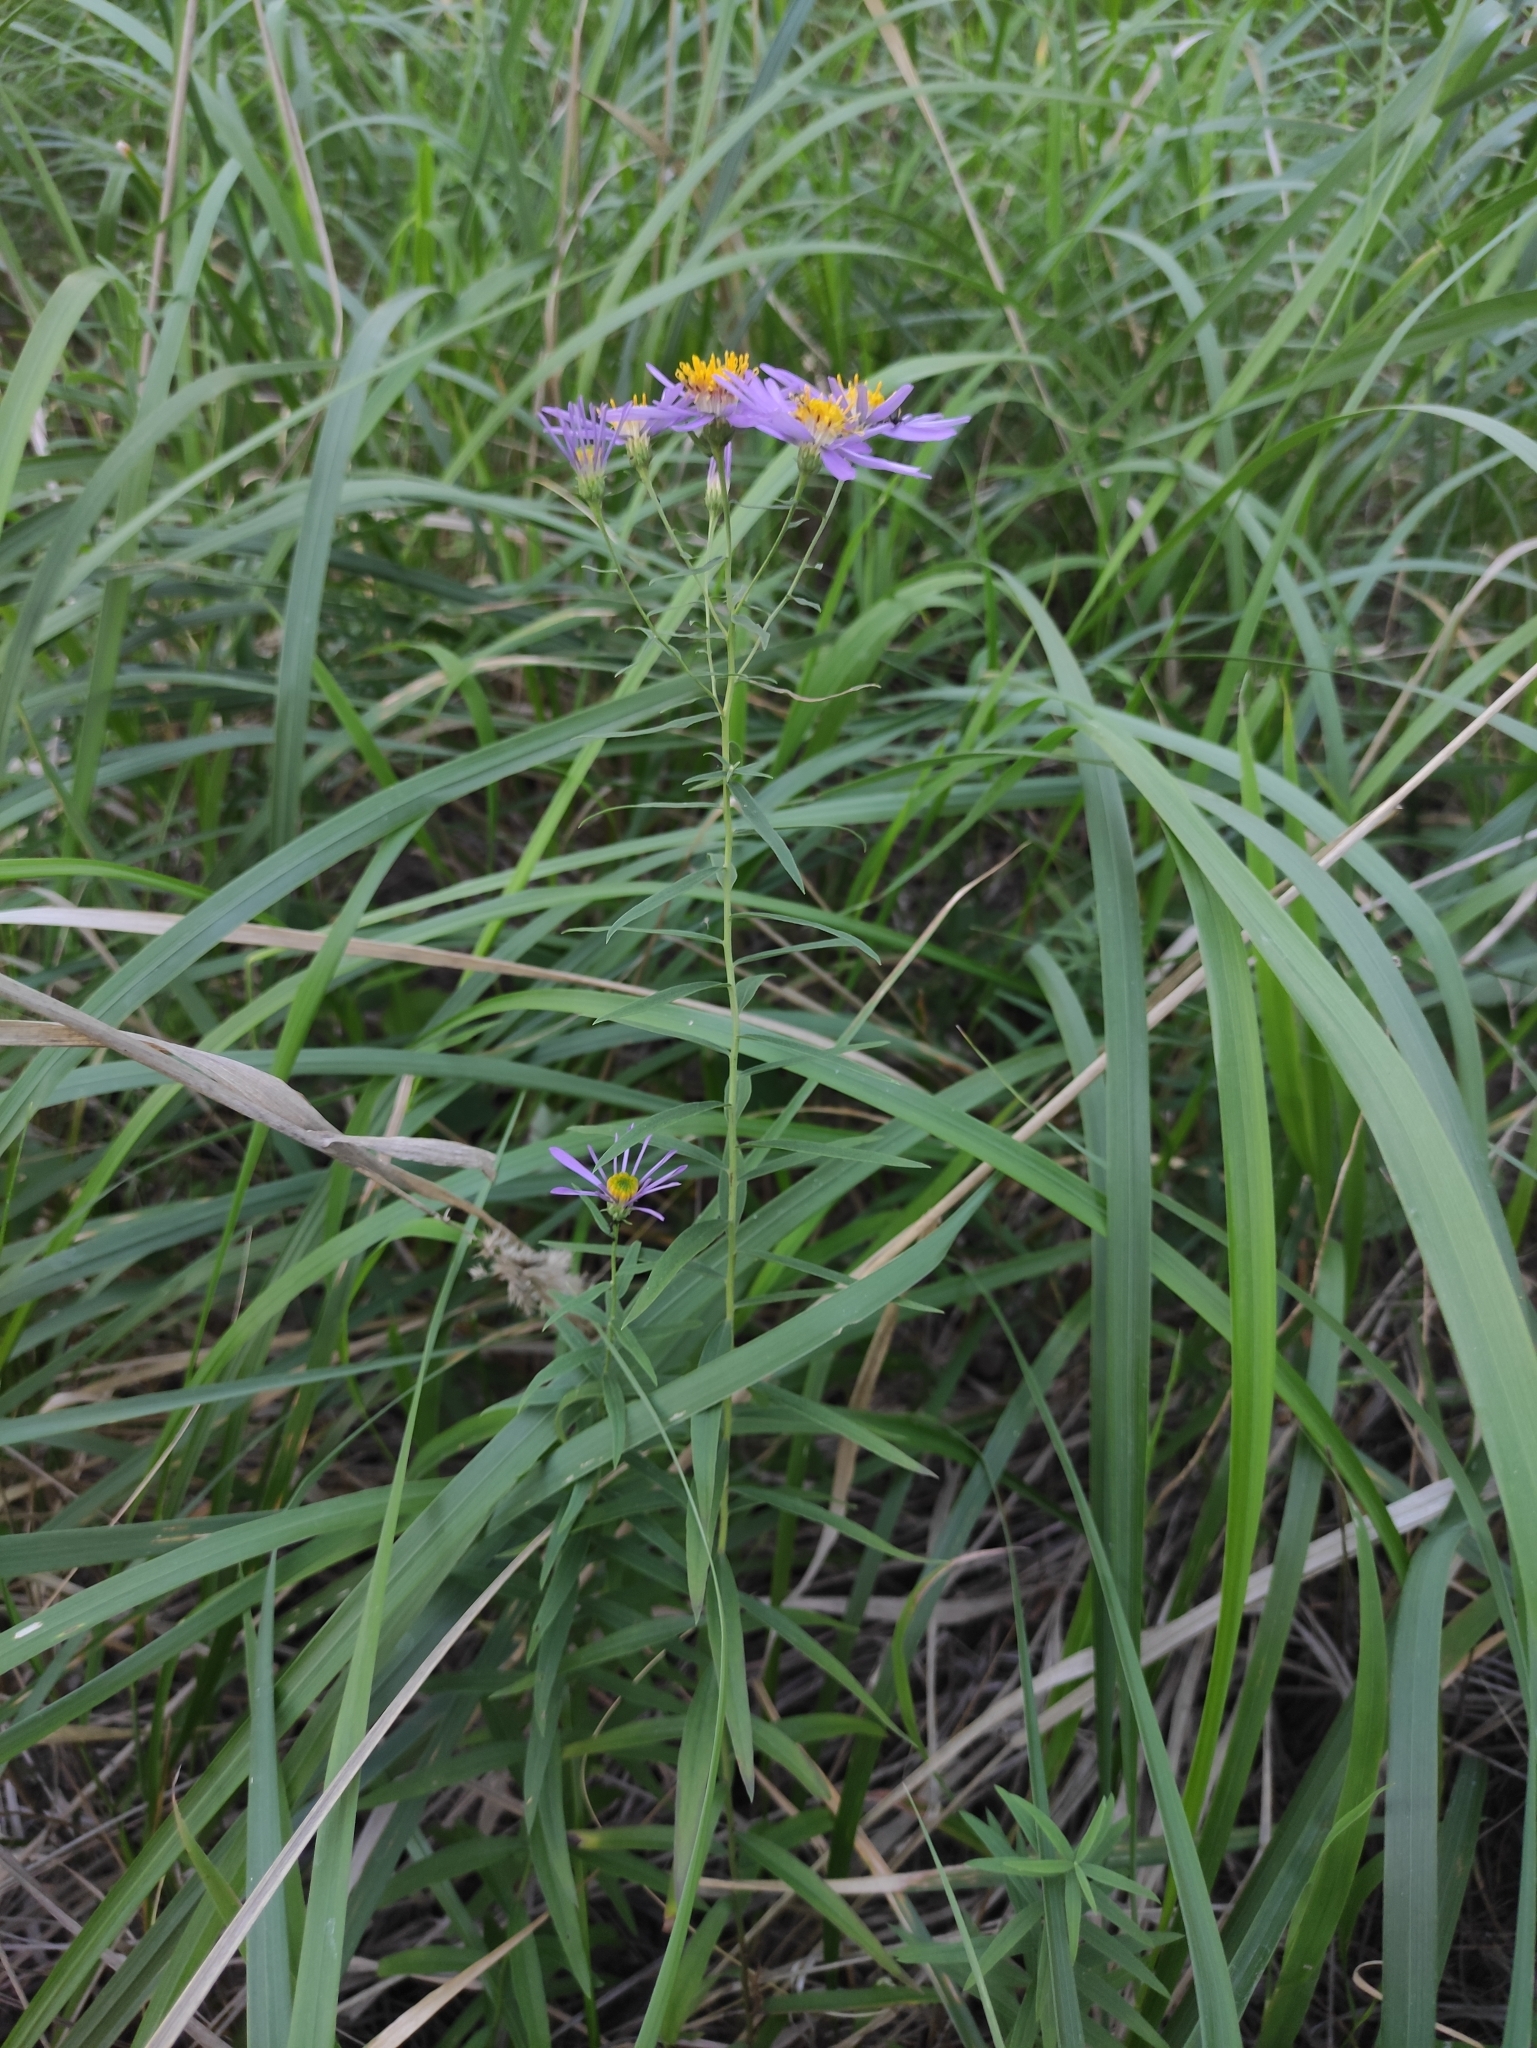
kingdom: Plantae
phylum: Tracheophyta
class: Magnoliopsida
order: Asterales
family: Asteraceae
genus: Galatella
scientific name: Galatella dahurica
